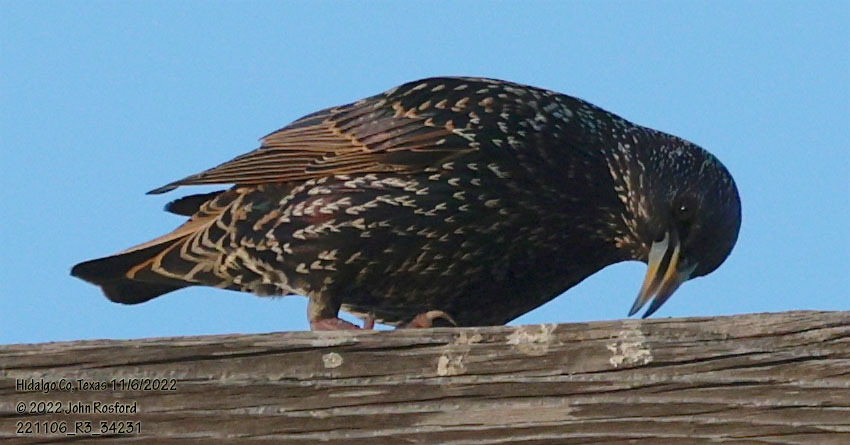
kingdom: Animalia
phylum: Chordata
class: Aves
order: Passeriformes
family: Sturnidae
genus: Sturnus
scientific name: Sturnus vulgaris
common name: Common starling
